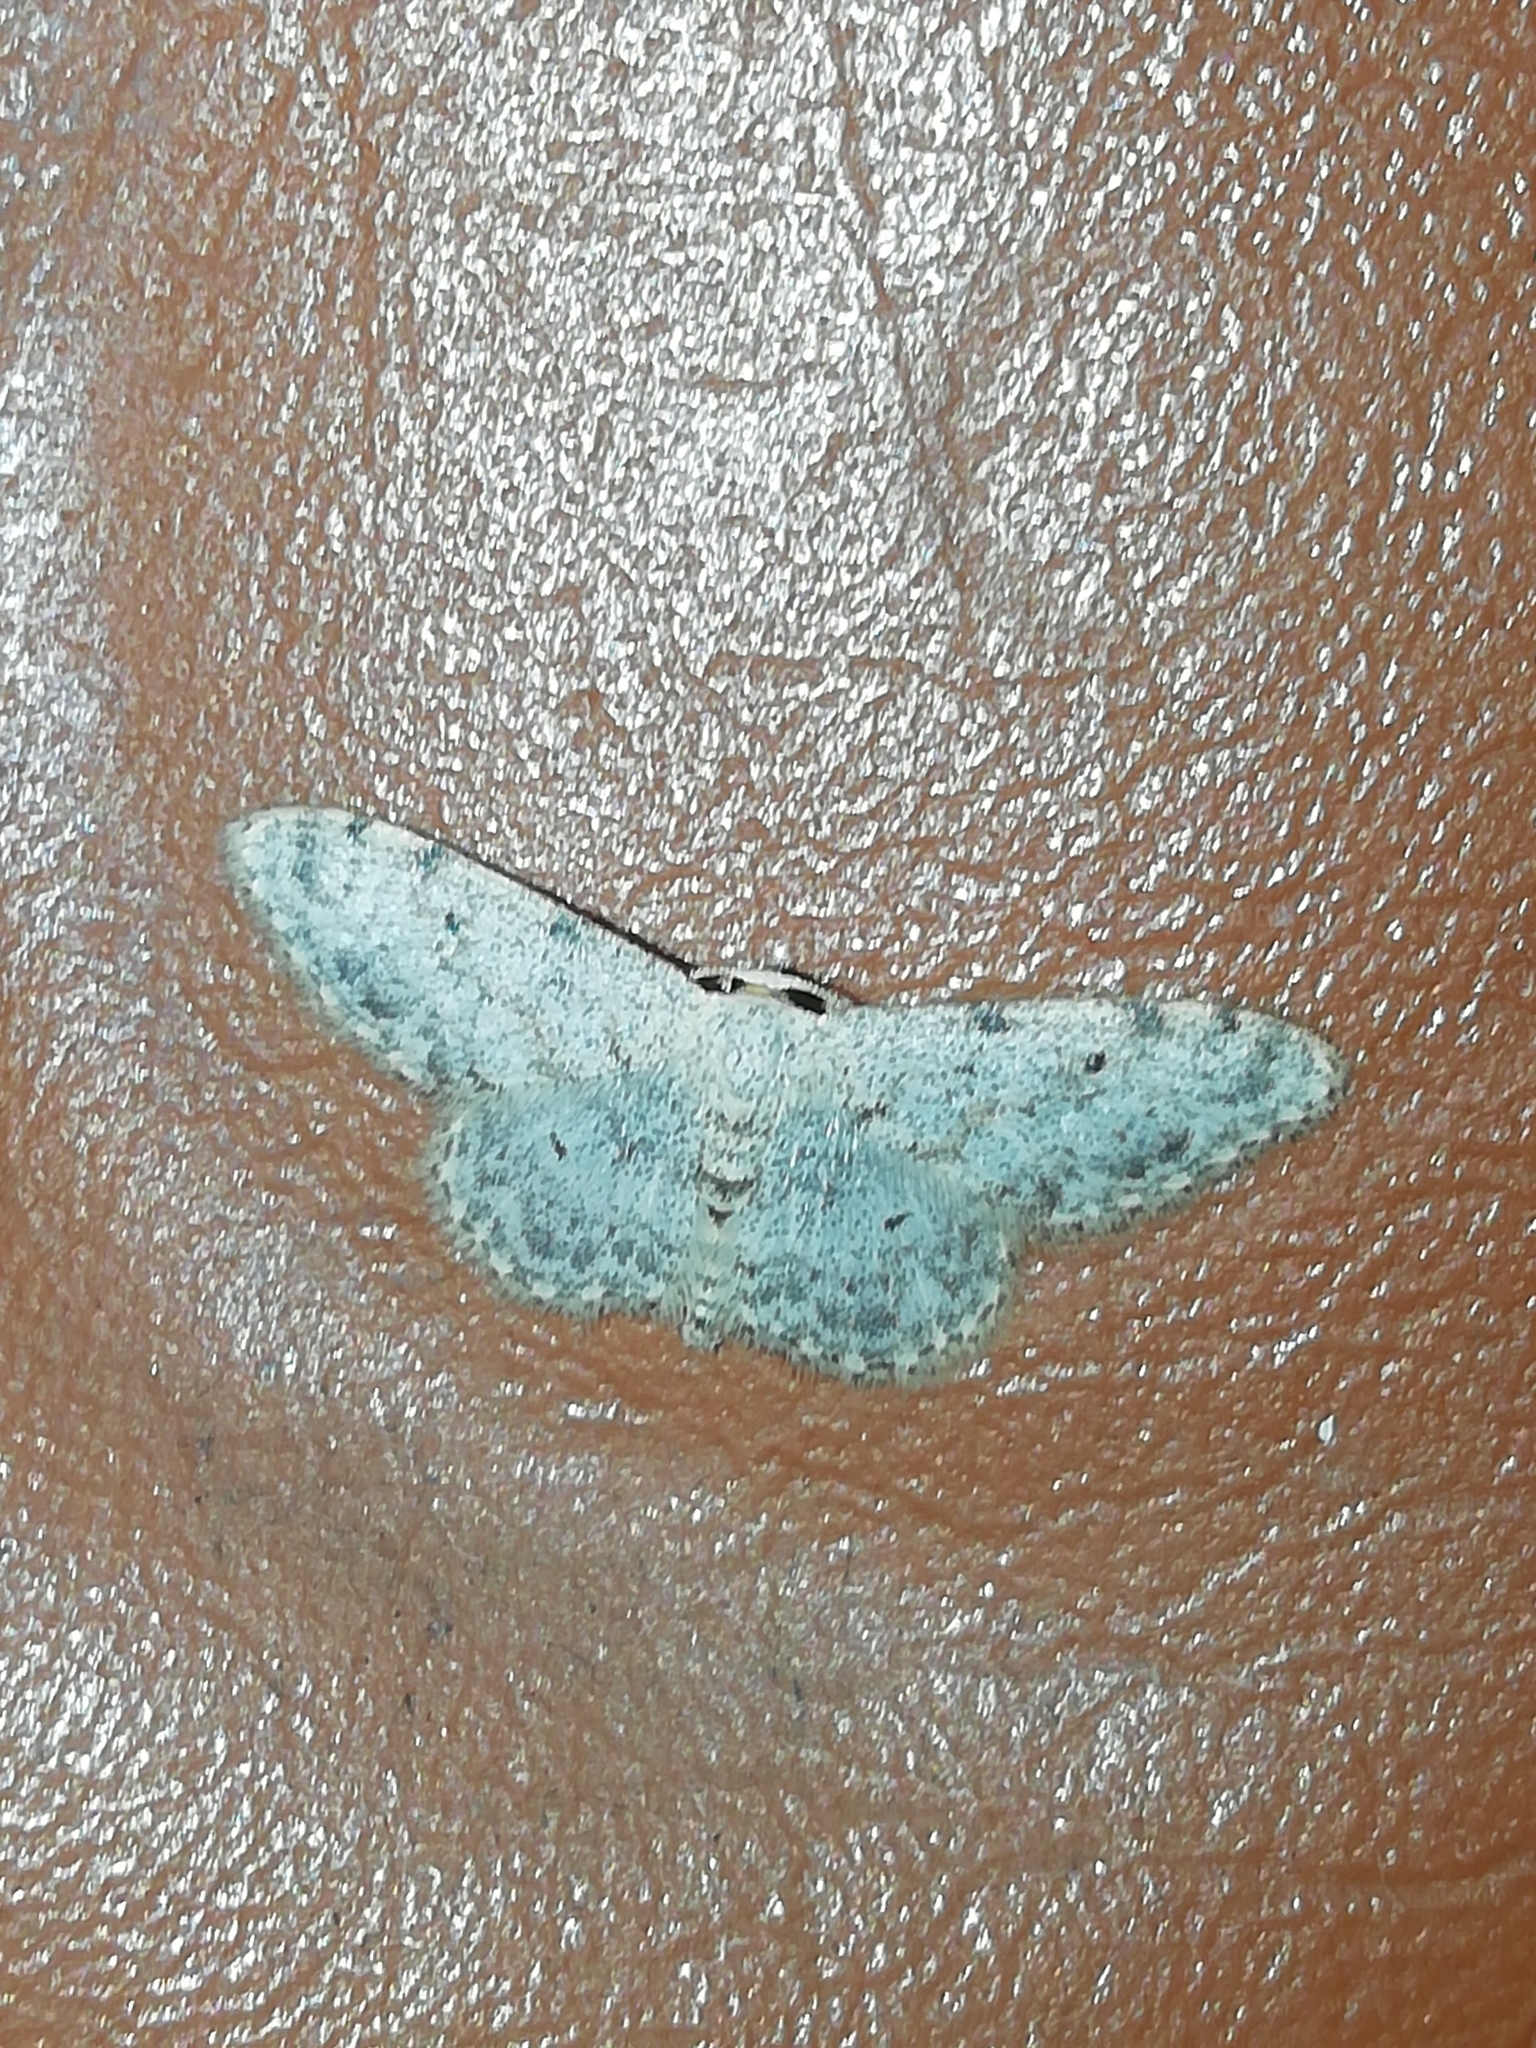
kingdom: Animalia
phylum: Arthropoda
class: Insecta
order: Lepidoptera
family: Geometridae
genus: Idaea
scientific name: Idaea camparia
